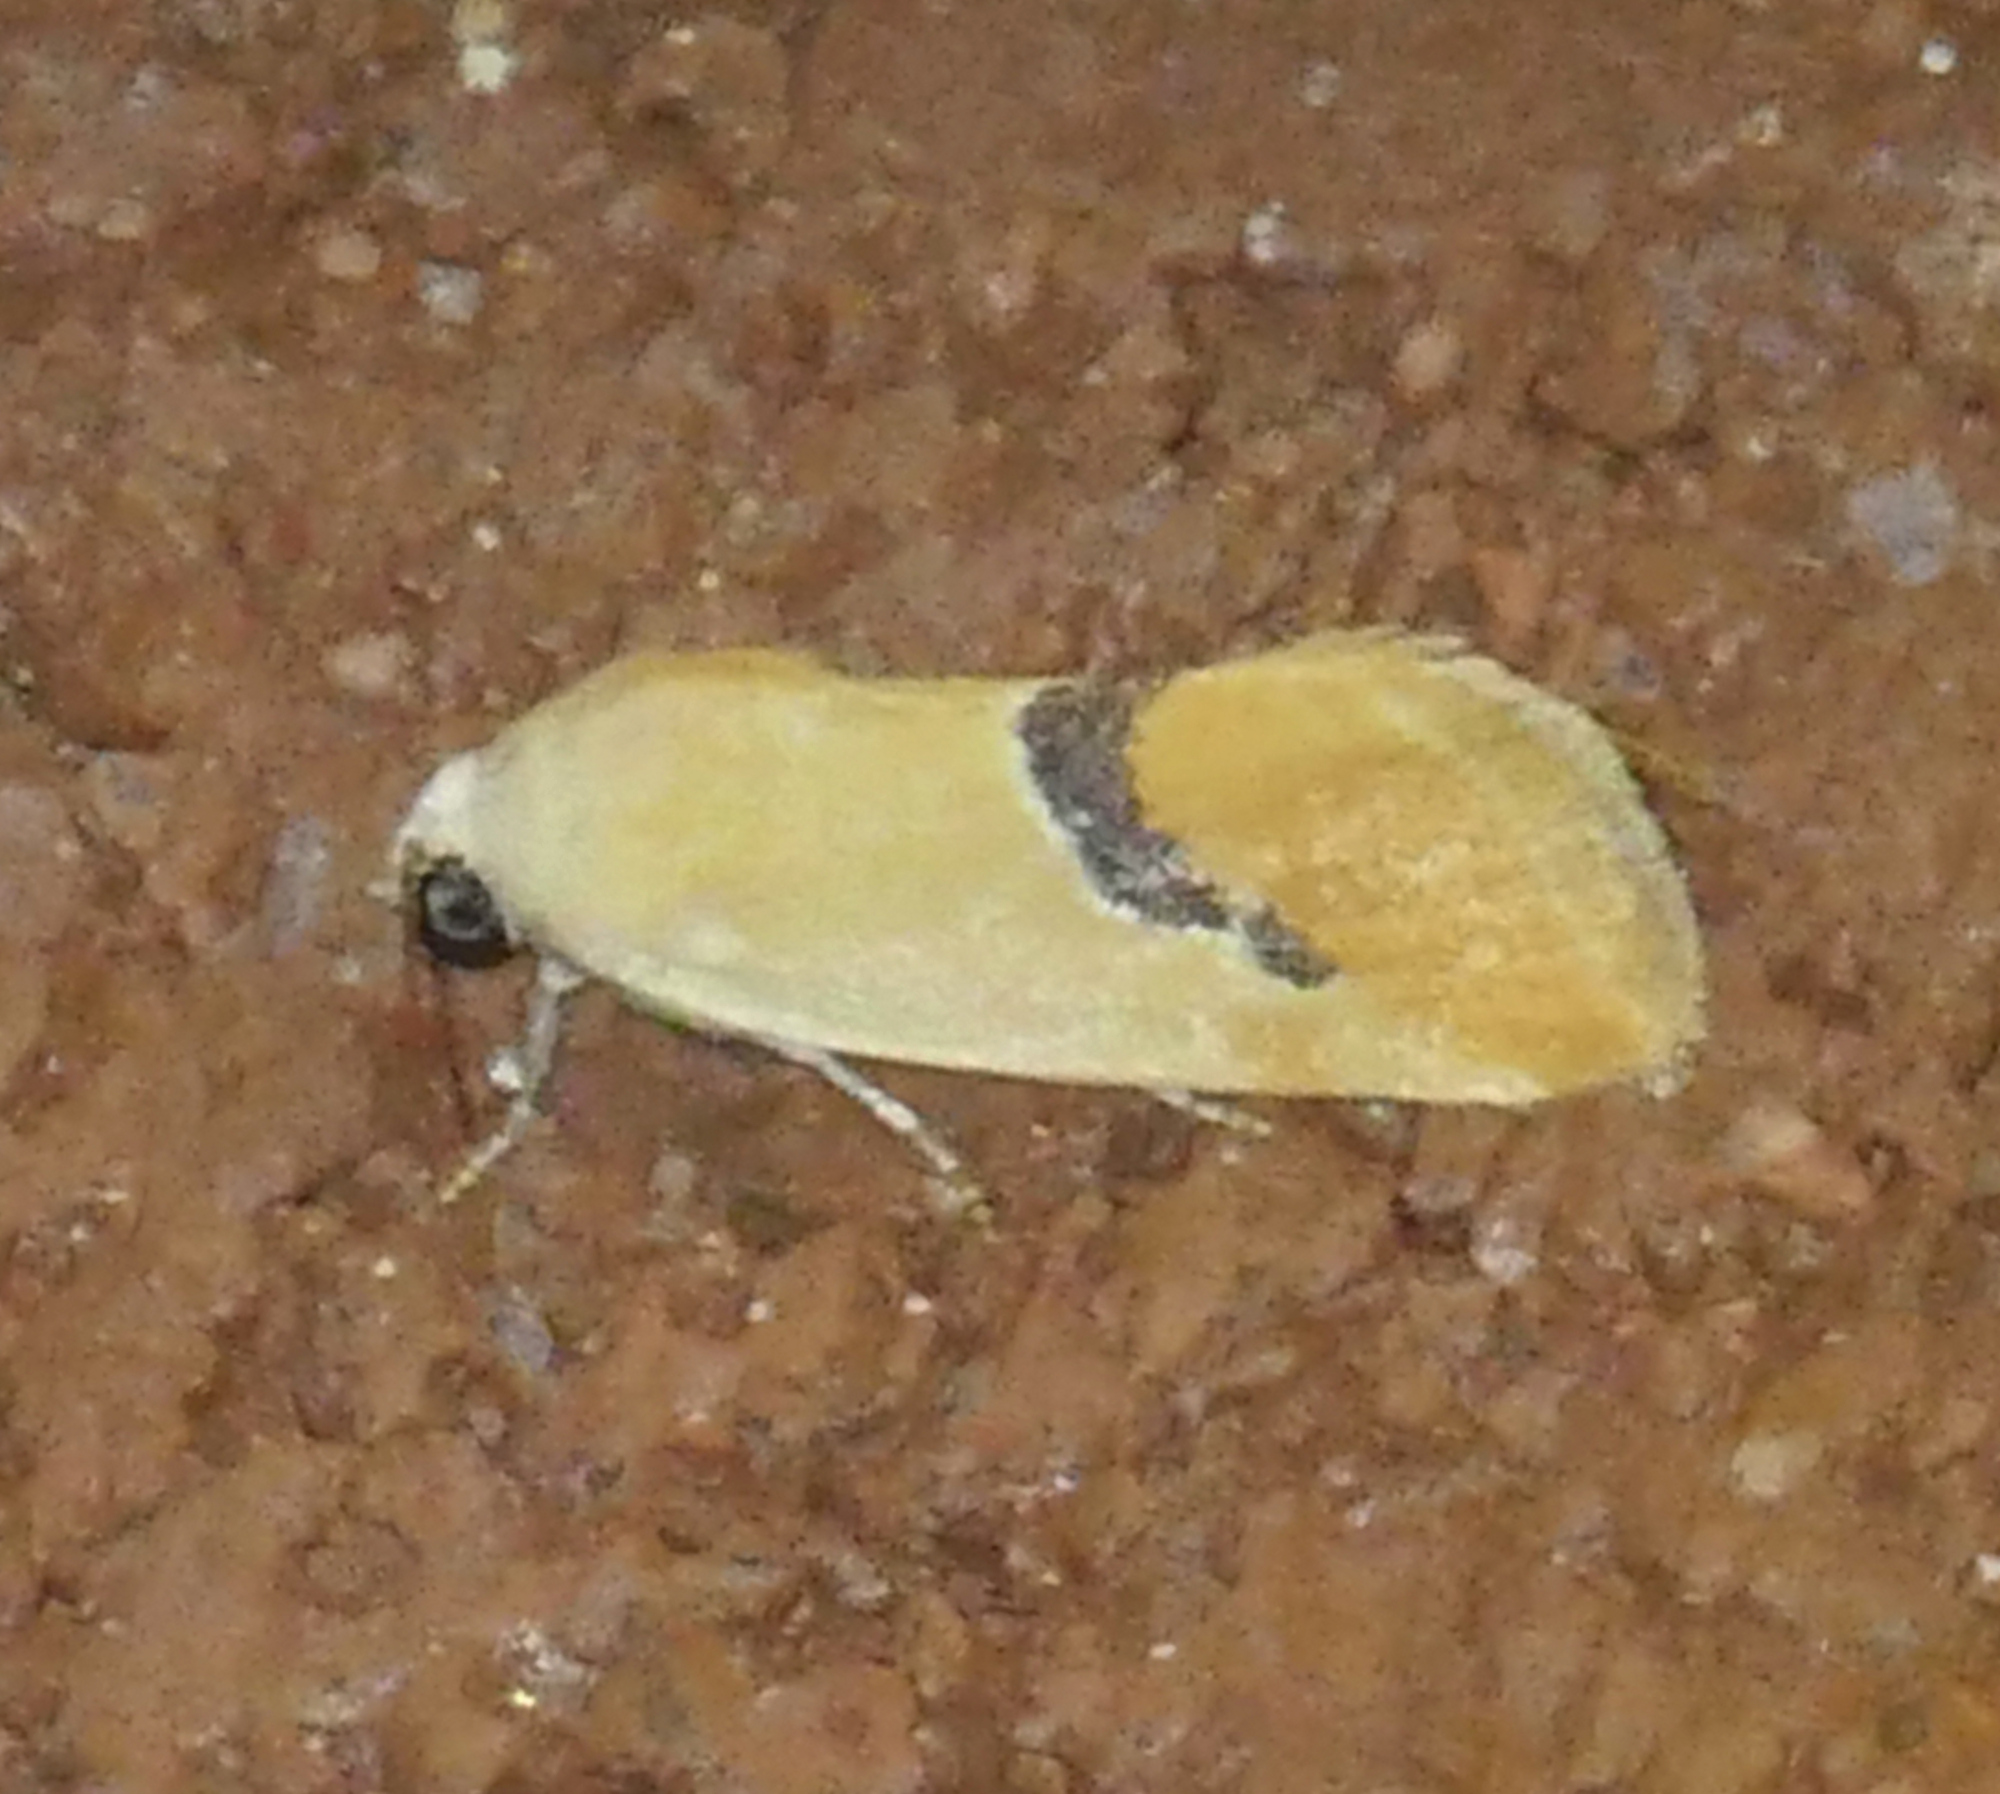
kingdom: Animalia
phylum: Arthropoda
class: Insecta
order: Lepidoptera
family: Noctuidae
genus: Ponometia
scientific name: Ponometia venustula
